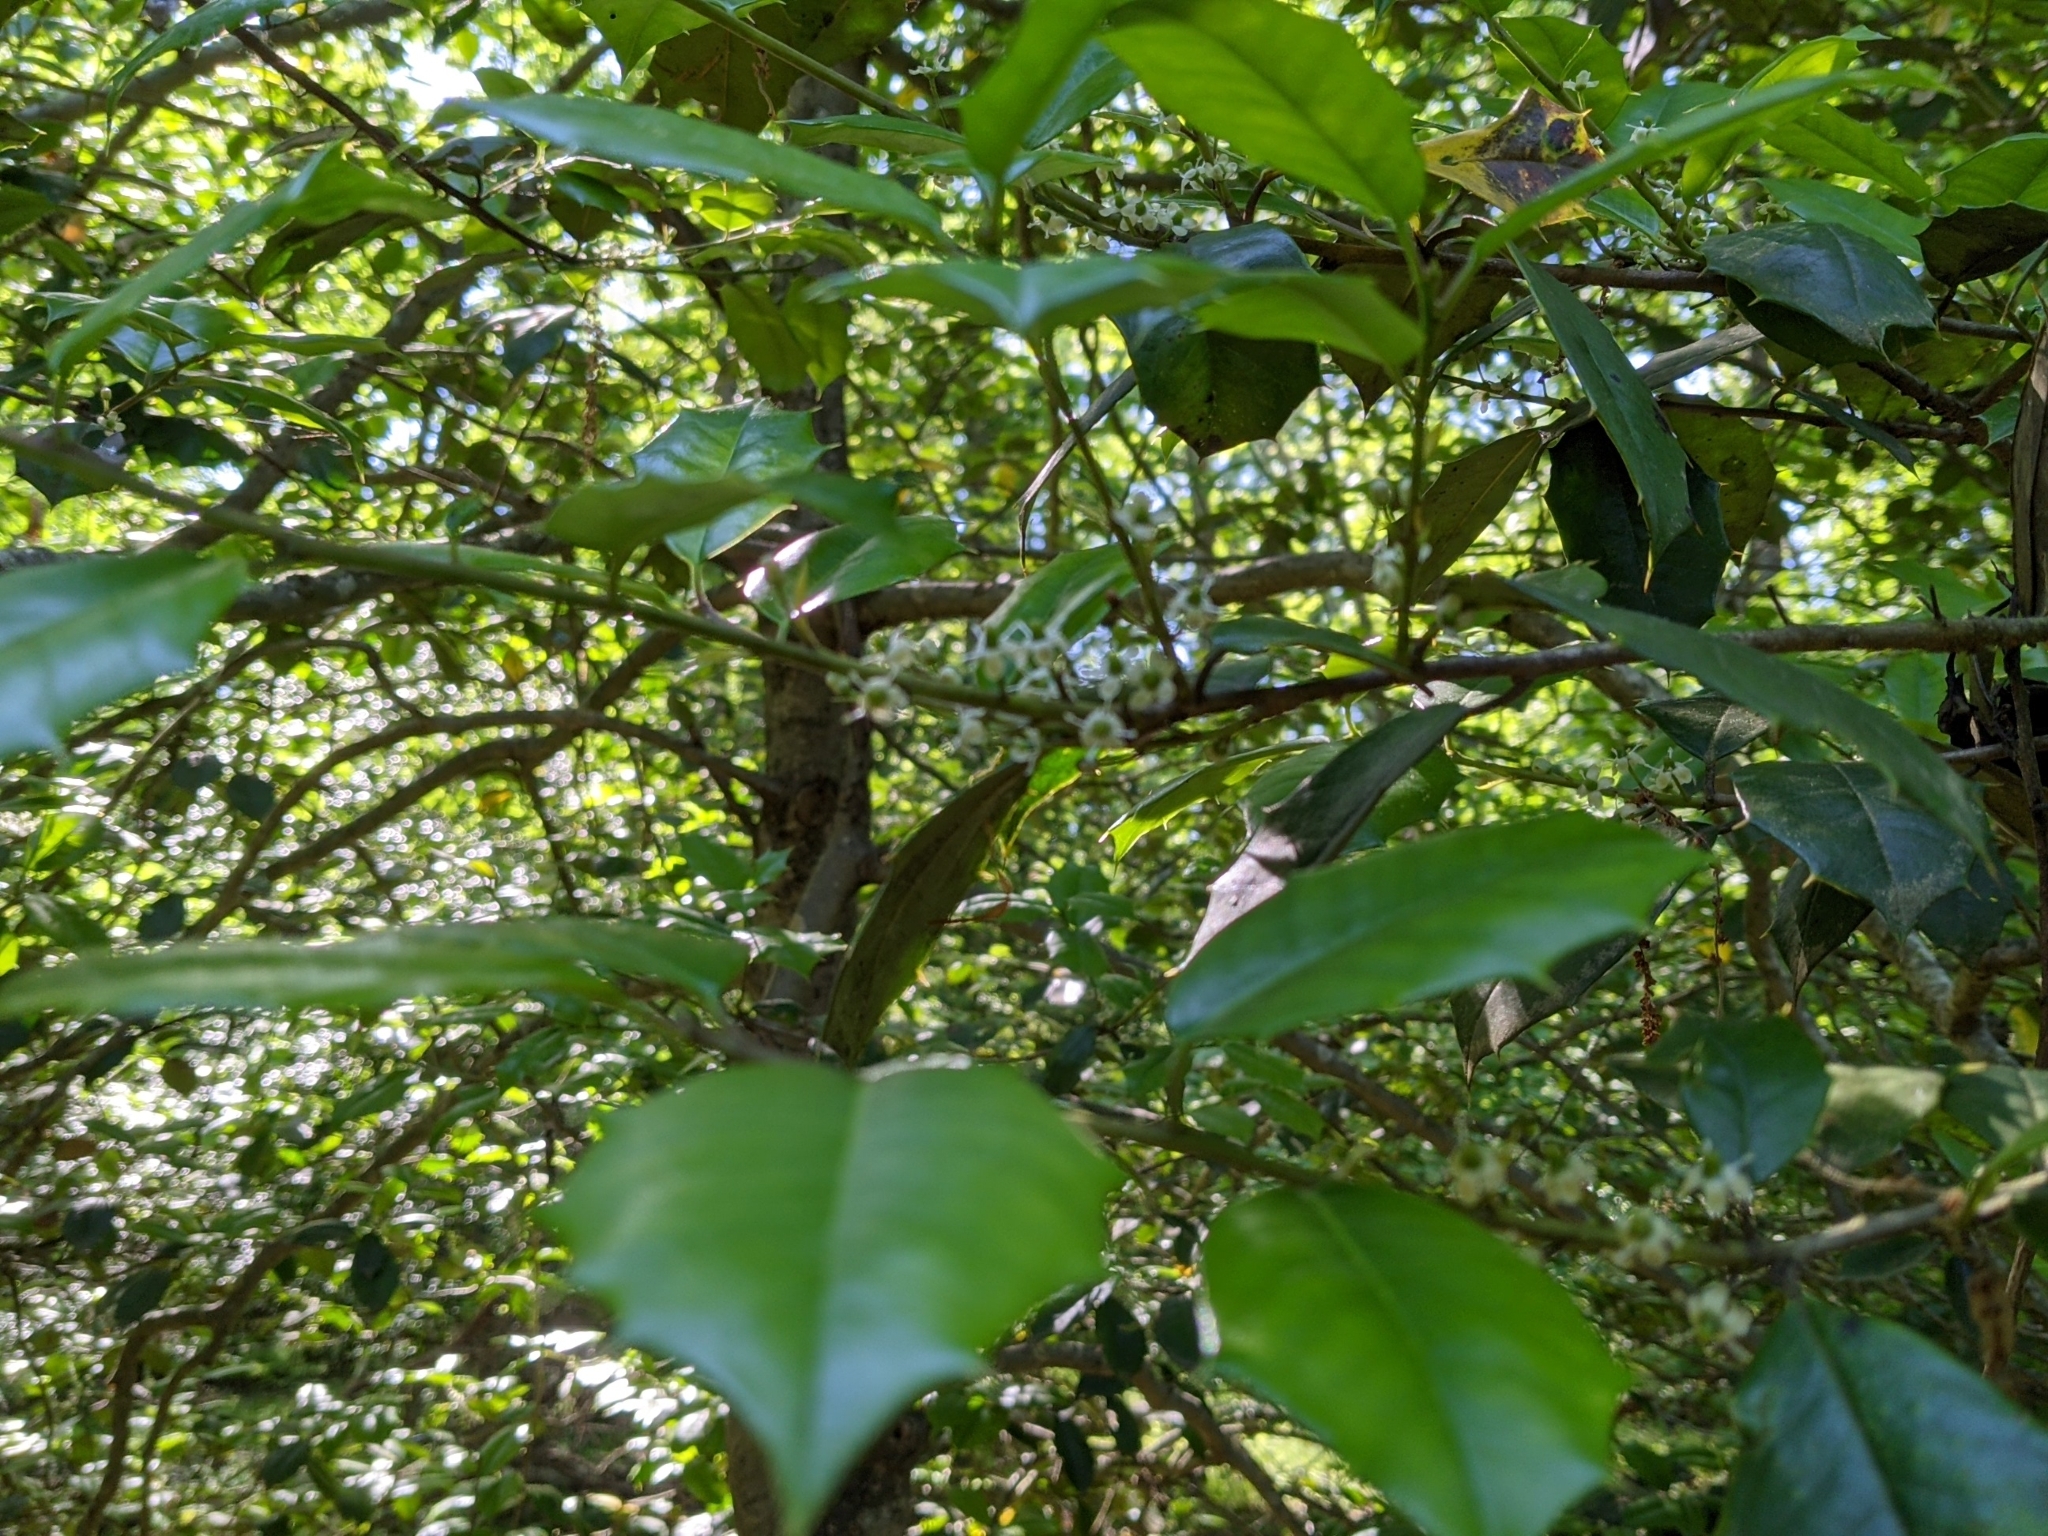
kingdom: Plantae
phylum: Tracheophyta
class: Magnoliopsida
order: Aquifoliales
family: Aquifoliaceae
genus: Ilex
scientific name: Ilex opaca
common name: American holly
